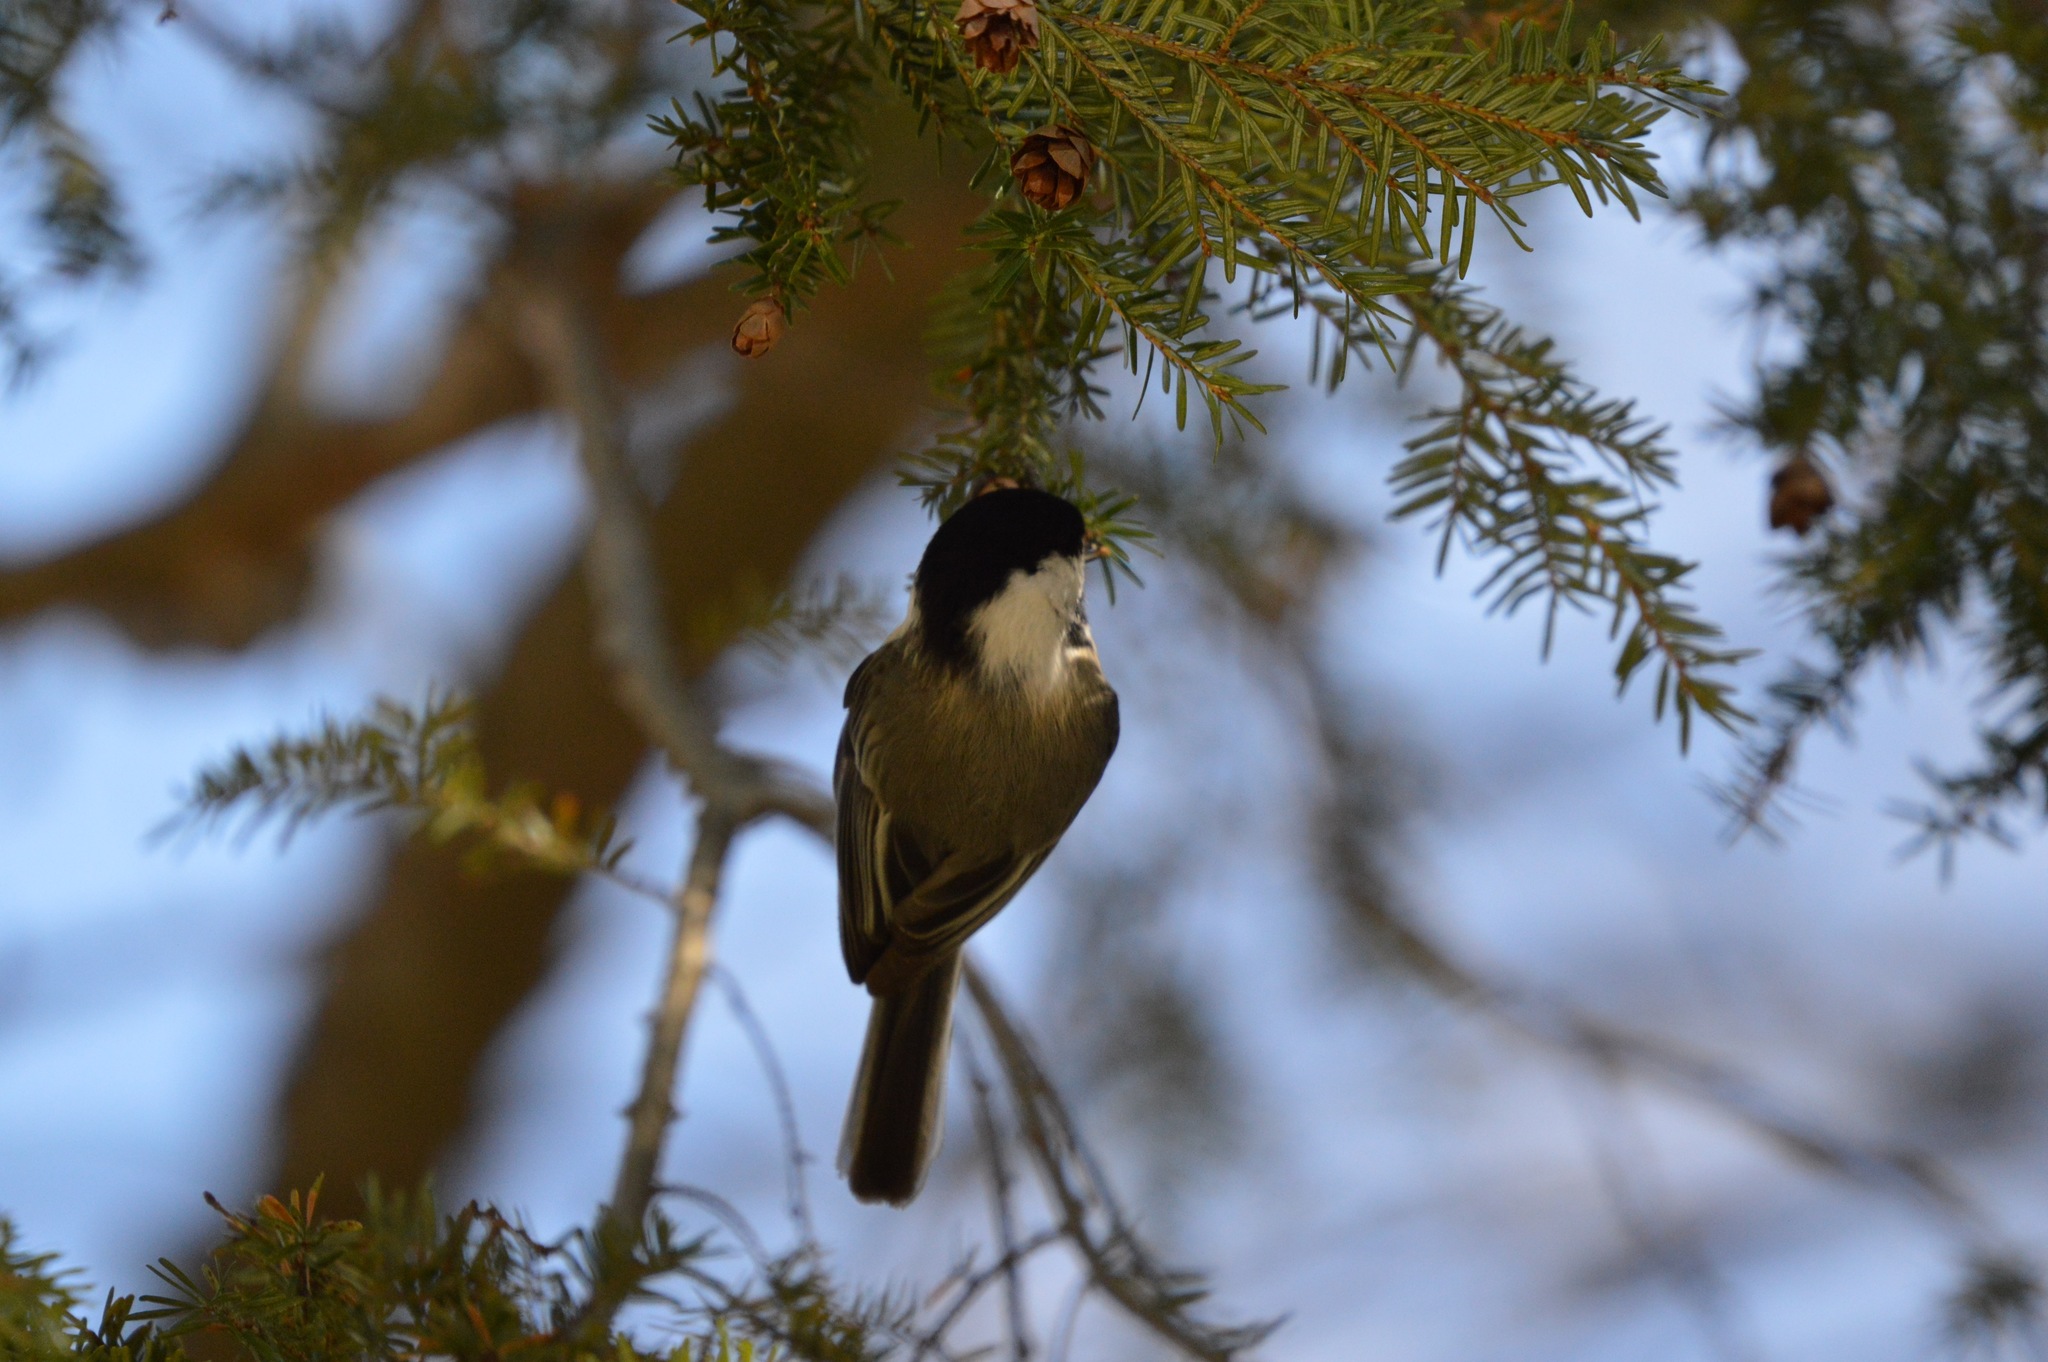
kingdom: Animalia
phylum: Chordata
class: Aves
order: Passeriformes
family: Paridae
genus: Poecile
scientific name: Poecile atricapillus
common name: Black-capped chickadee
